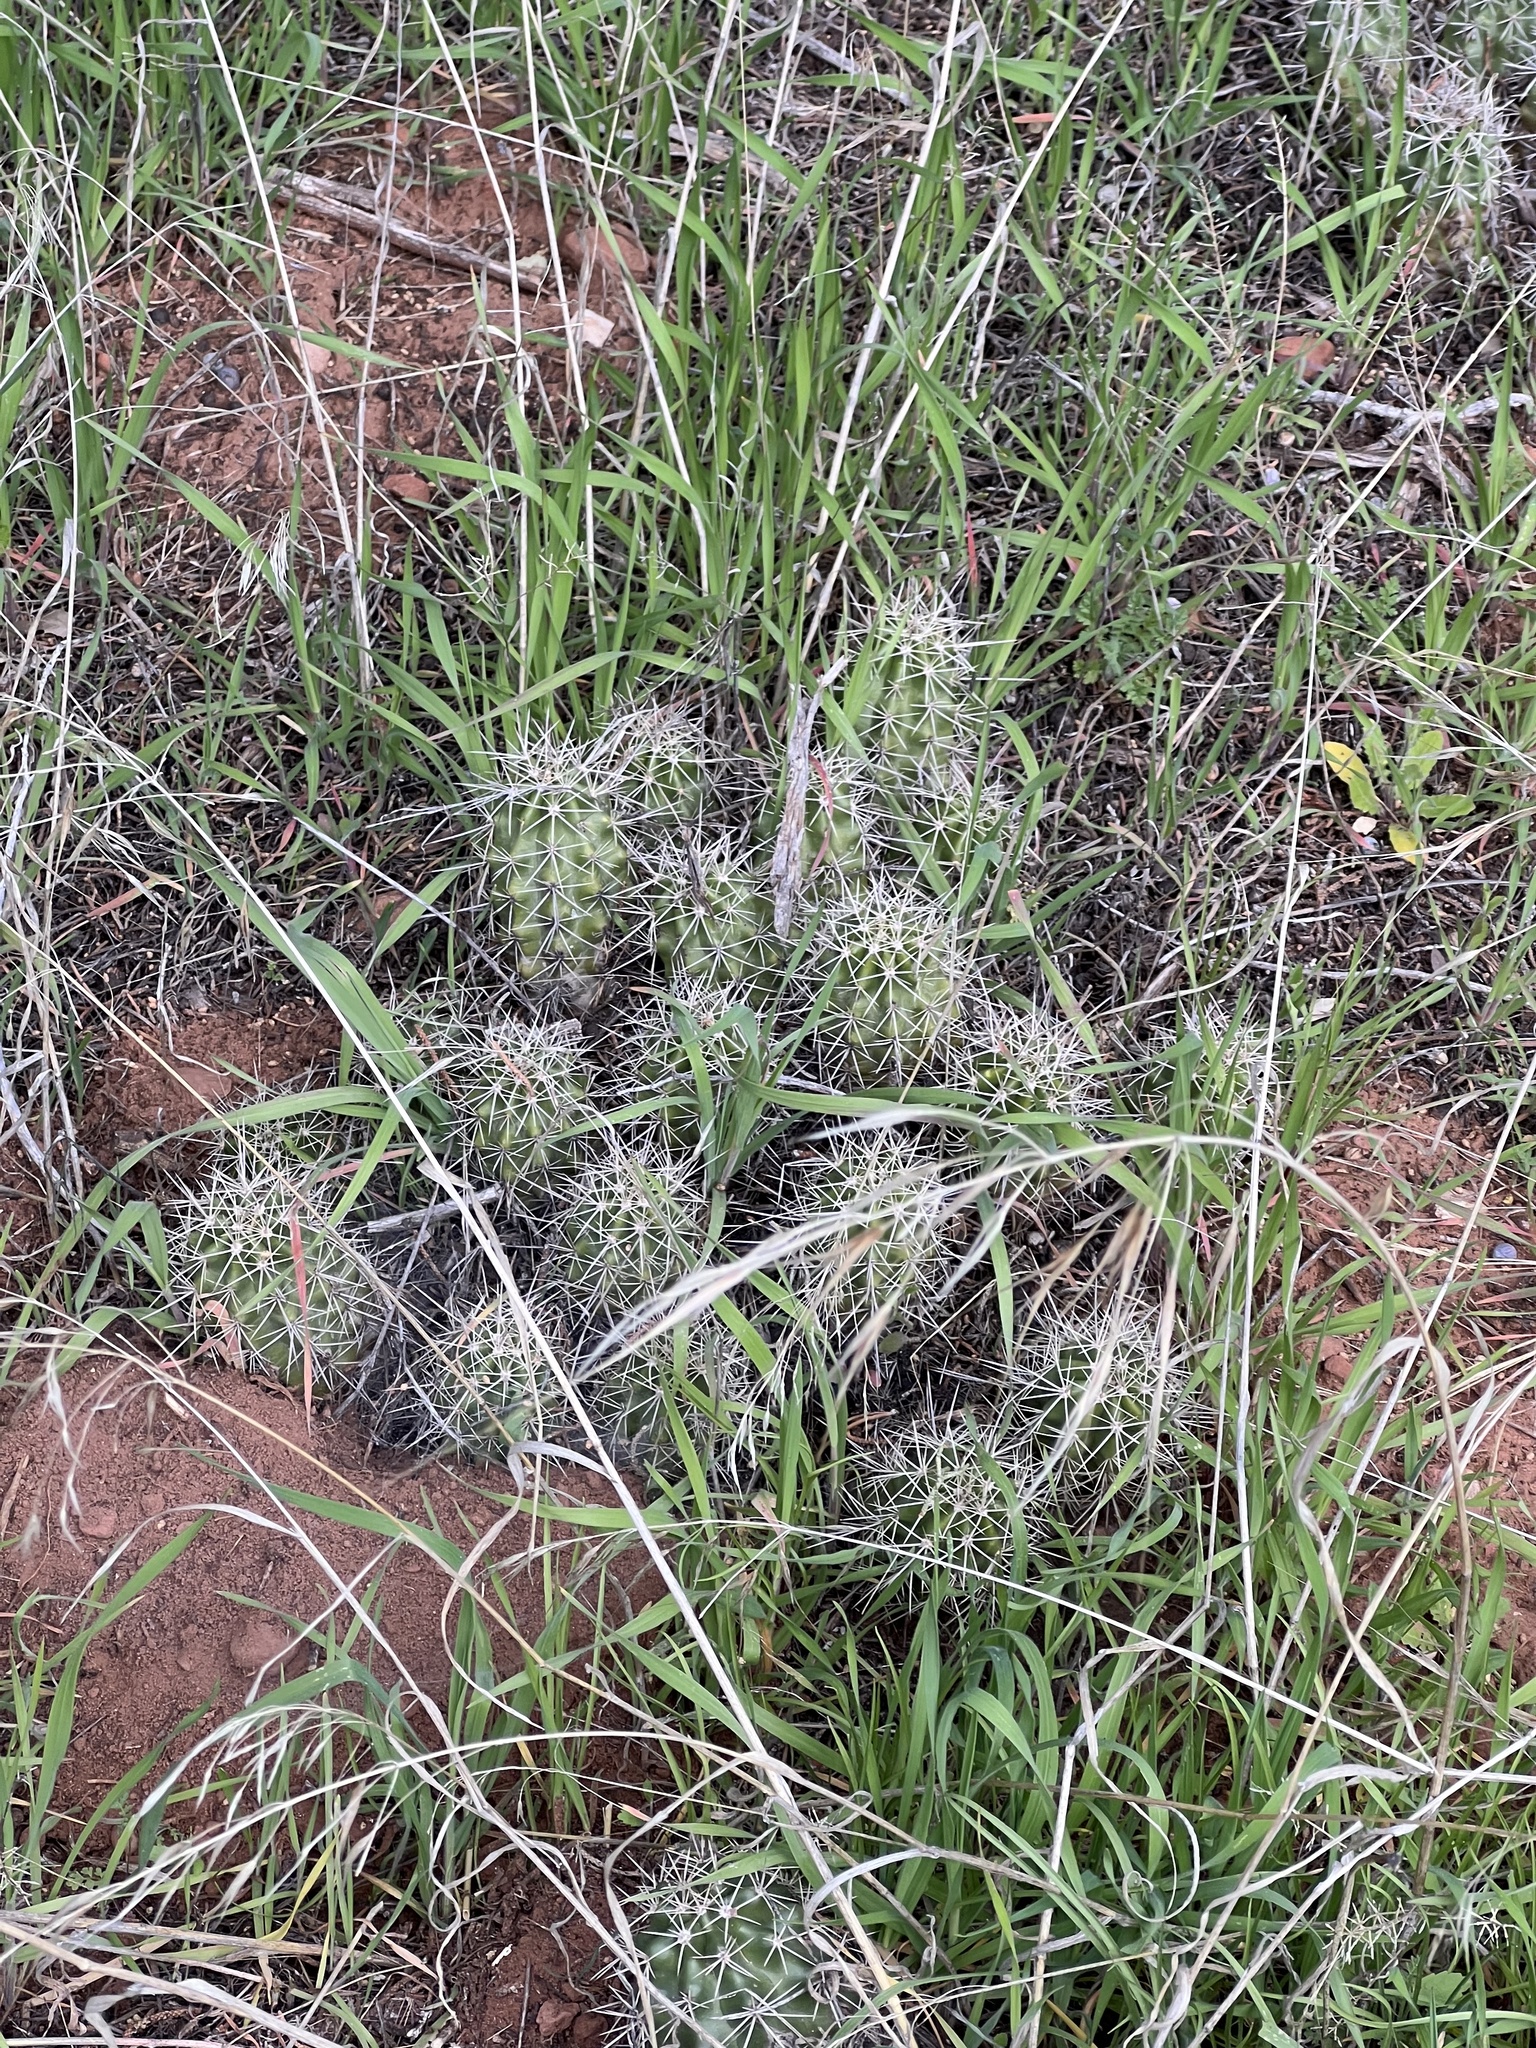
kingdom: Plantae
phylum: Tracheophyta
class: Magnoliopsida
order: Caryophyllales
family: Cactaceae
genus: Echinocereus
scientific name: Echinocereus triglochidiatus
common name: Claretcup hedgehog
